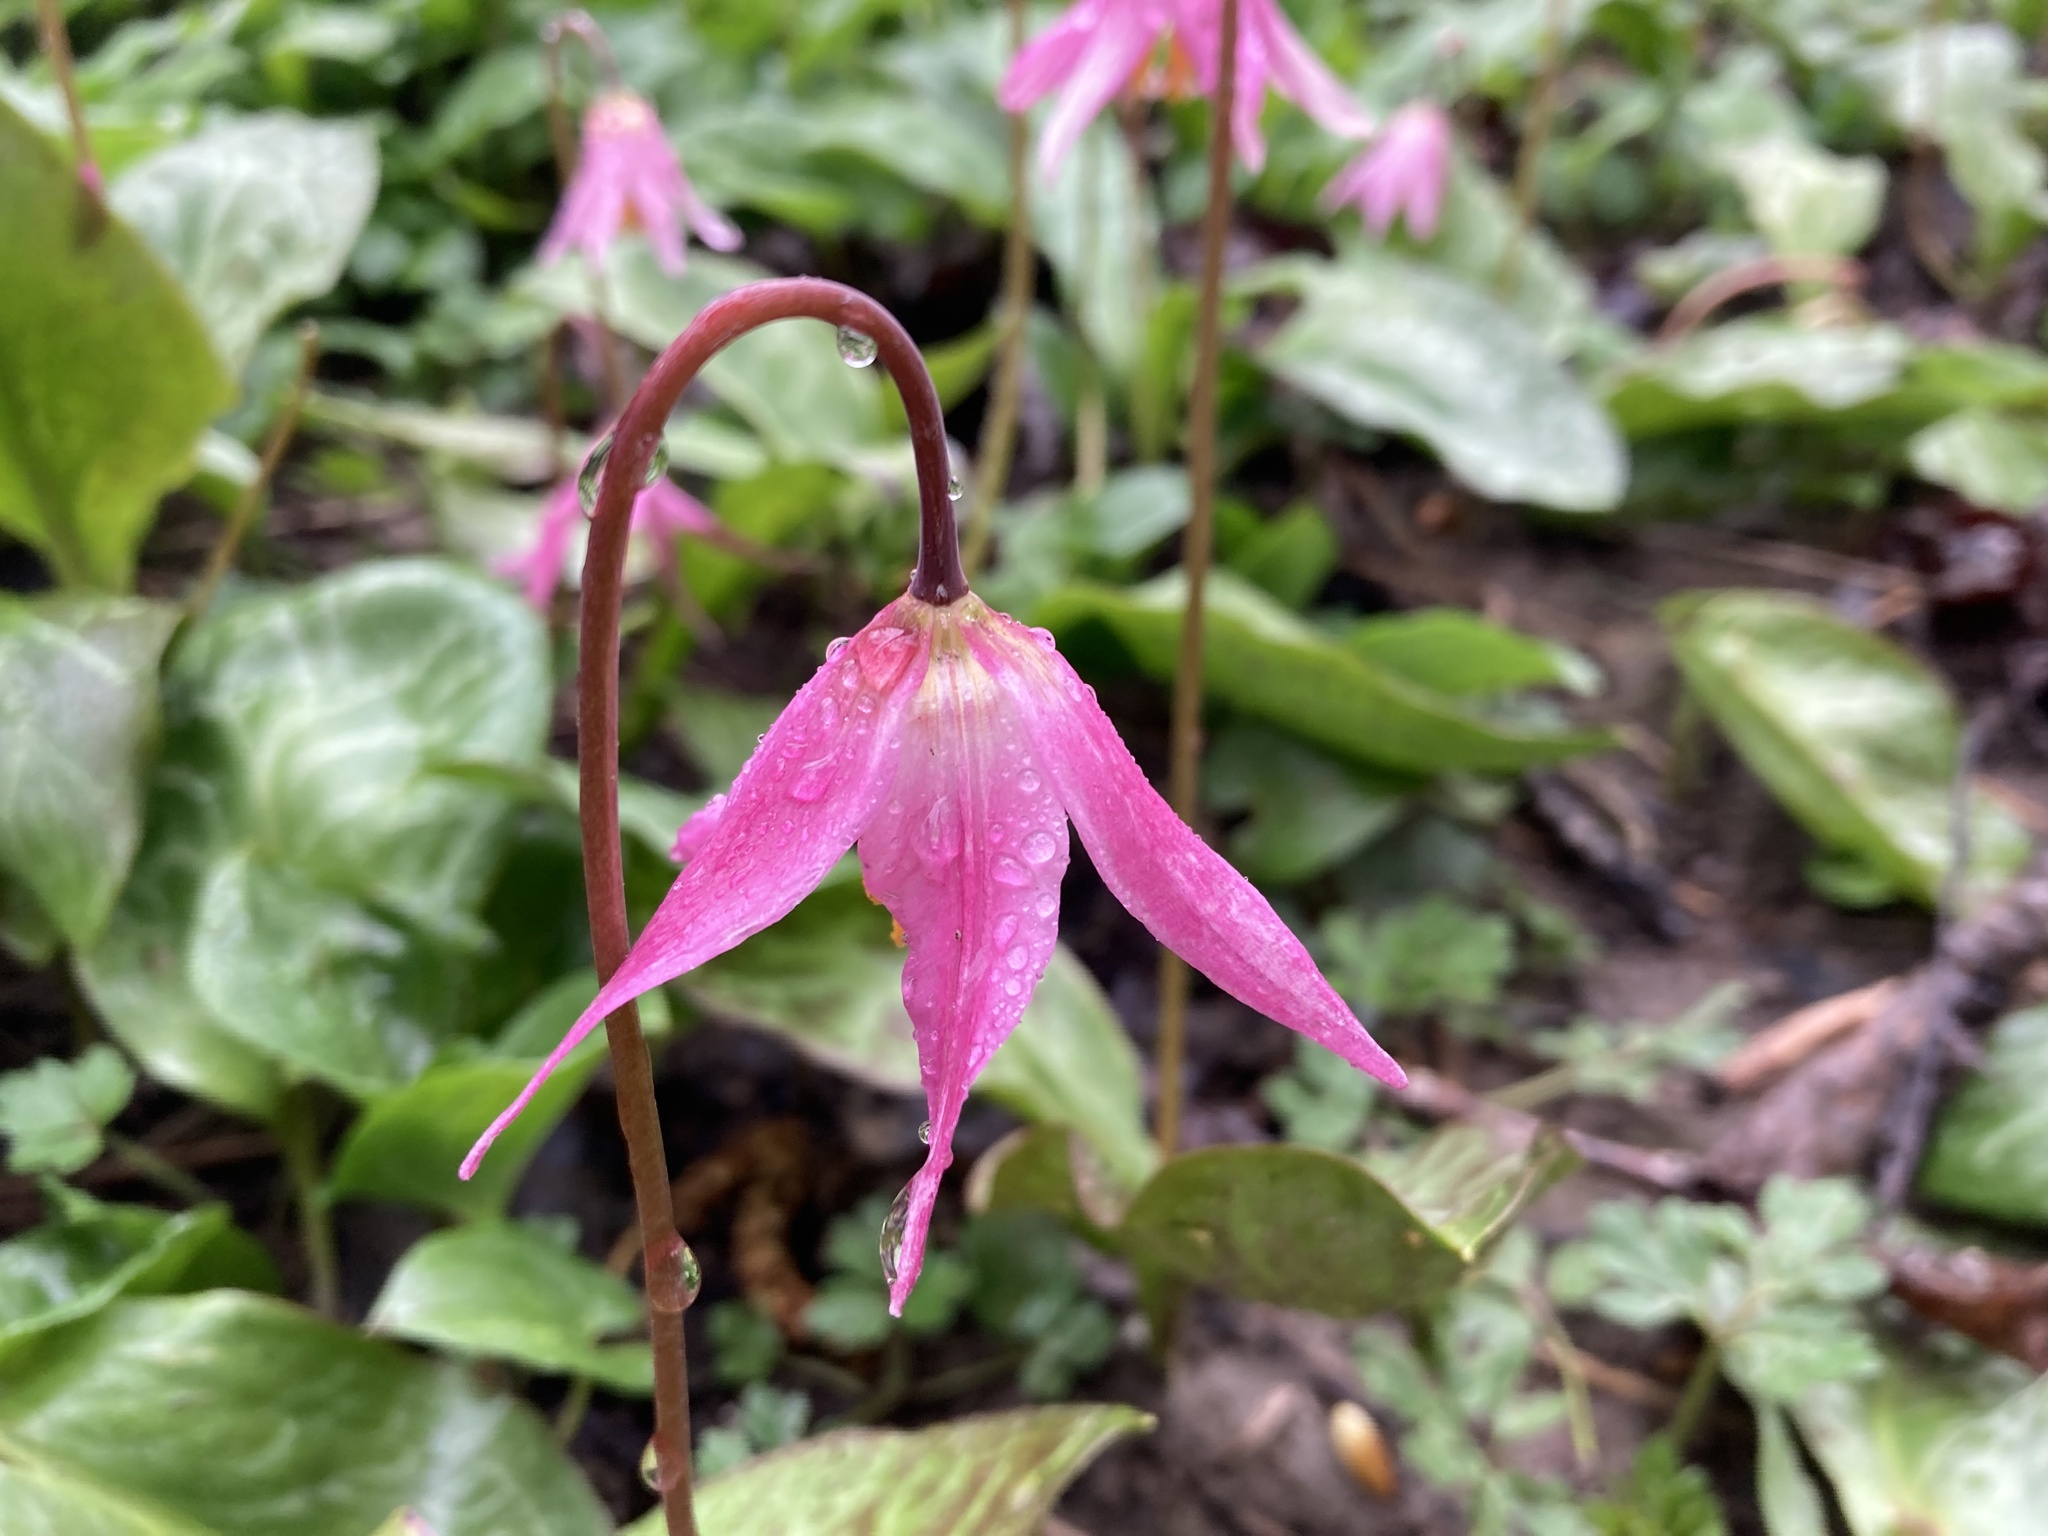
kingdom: Plantae
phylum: Tracheophyta
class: Liliopsida
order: Liliales
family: Liliaceae
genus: Erythronium
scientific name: Erythronium revolutum
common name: Pink fawn-lily
